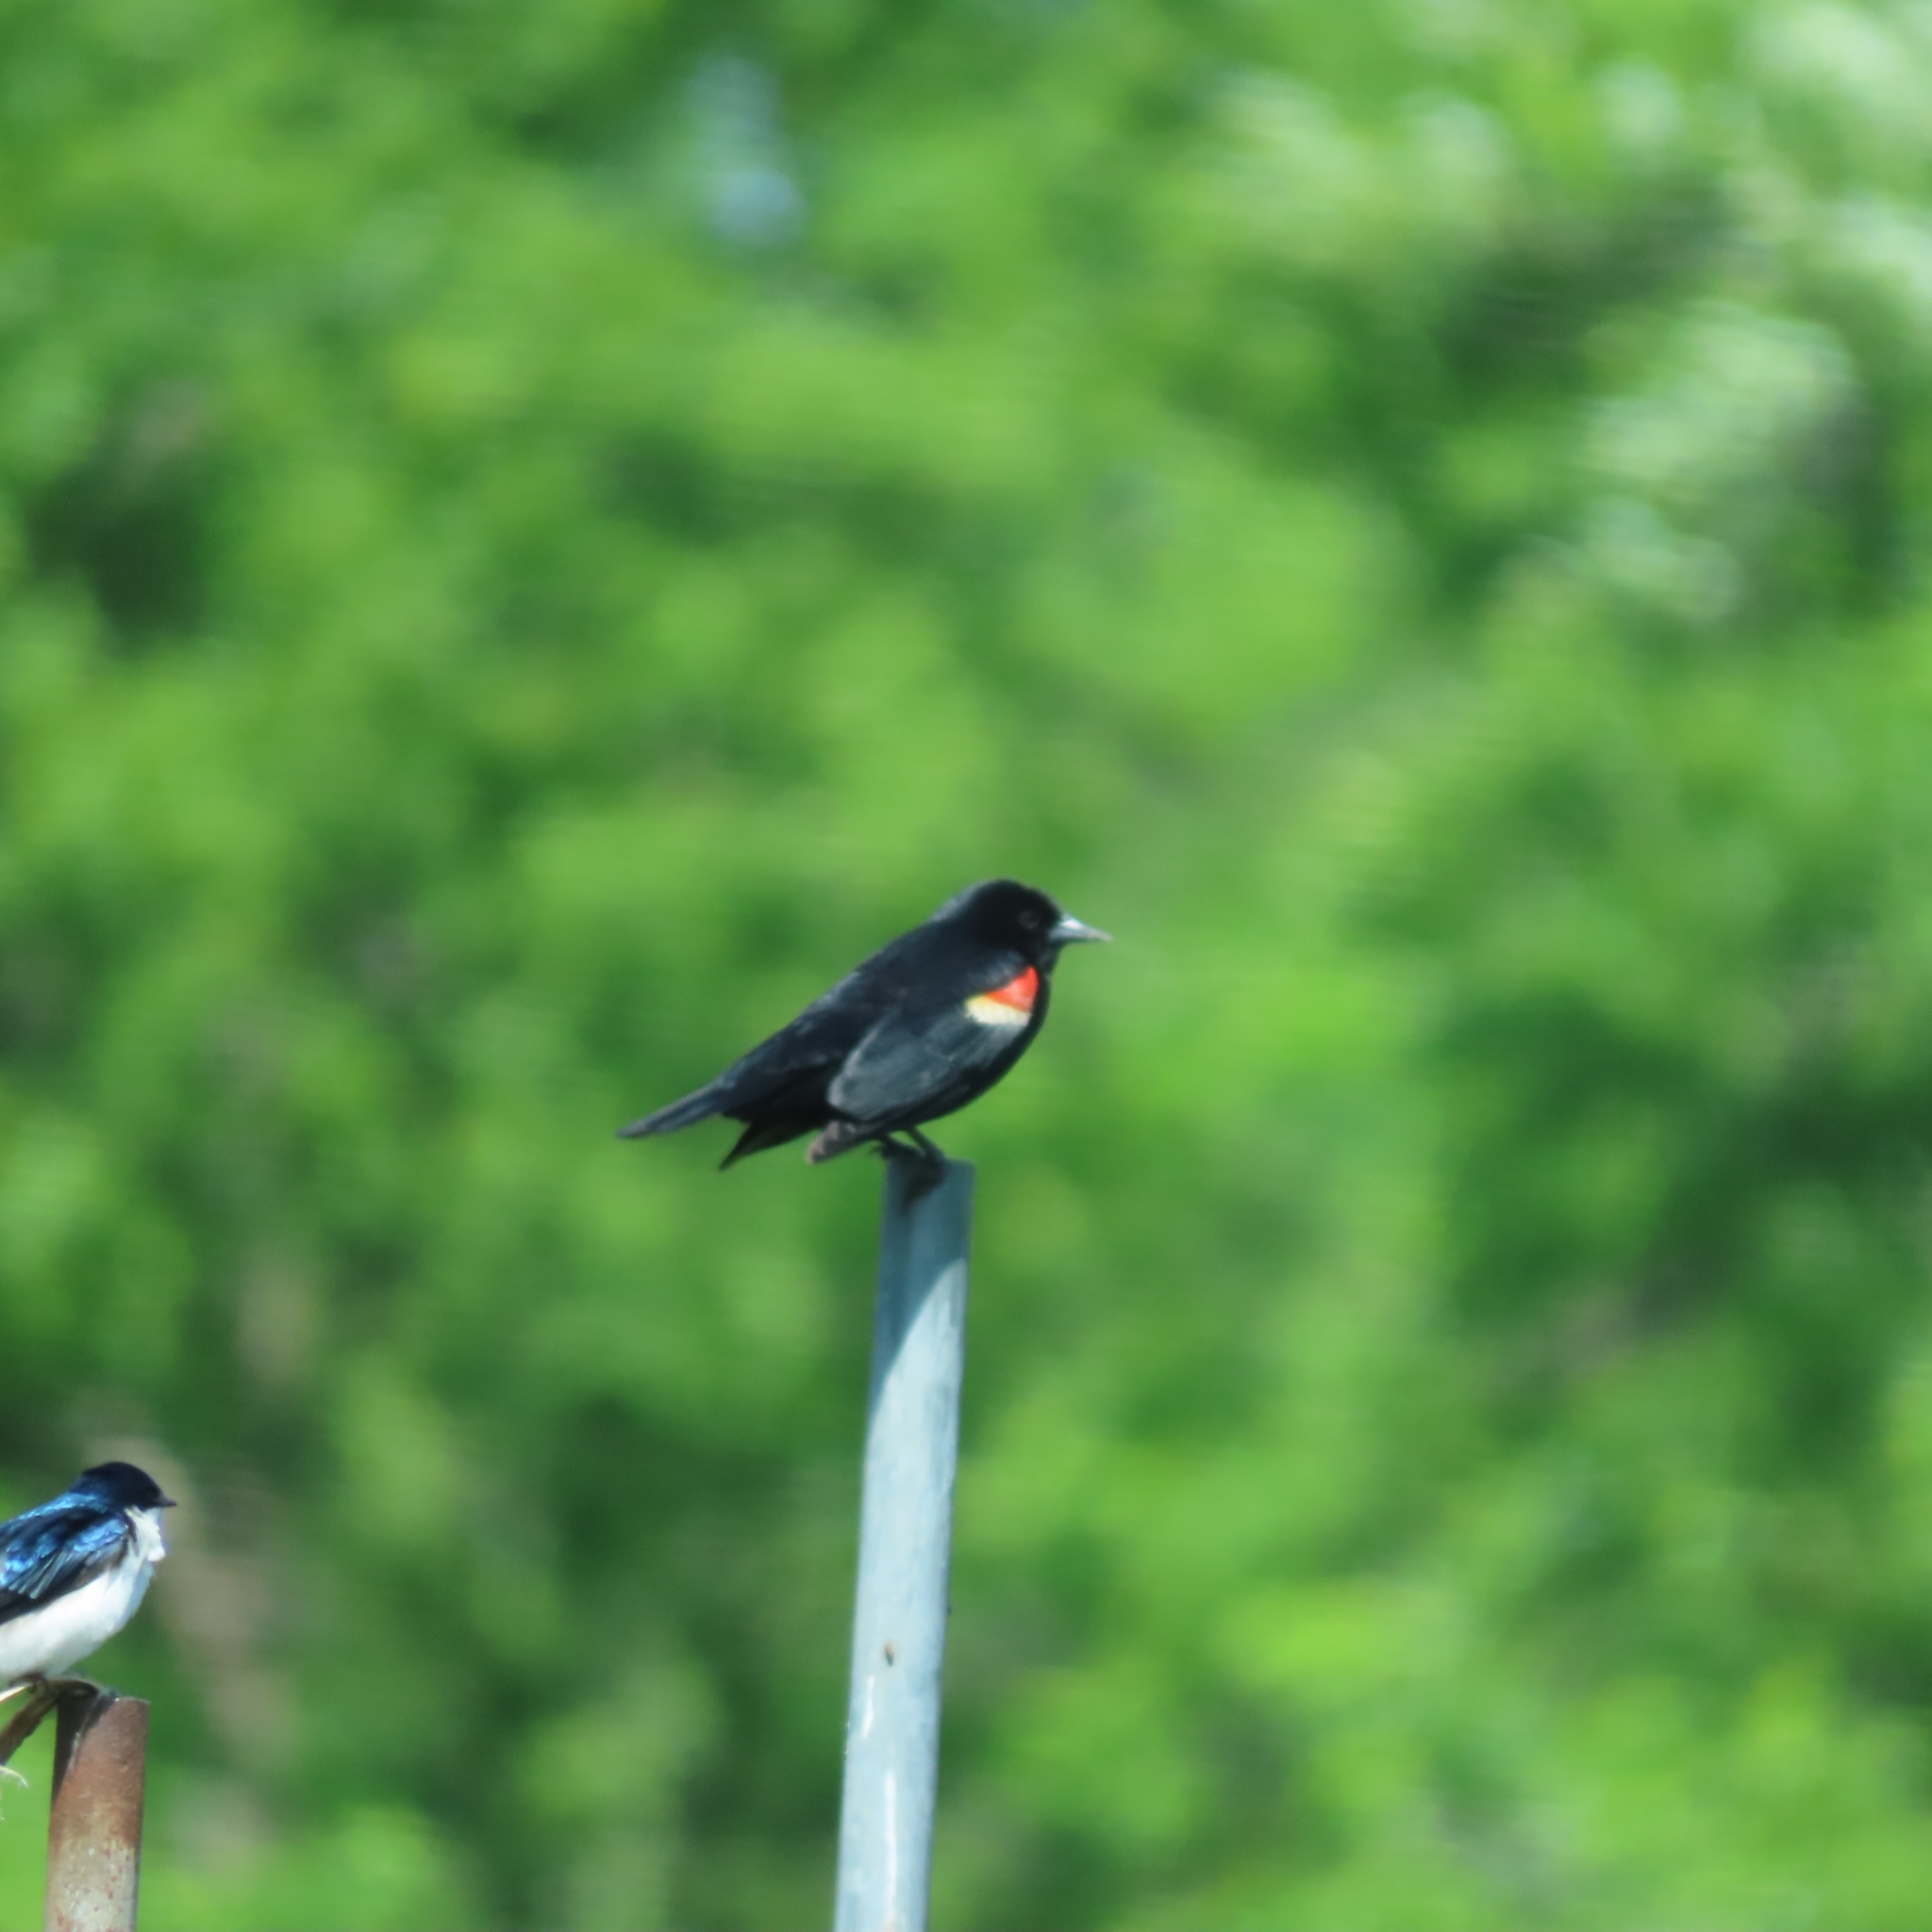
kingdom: Animalia
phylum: Chordata
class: Aves
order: Passeriformes
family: Icteridae
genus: Agelaius
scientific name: Agelaius phoeniceus
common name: Red-winged blackbird
